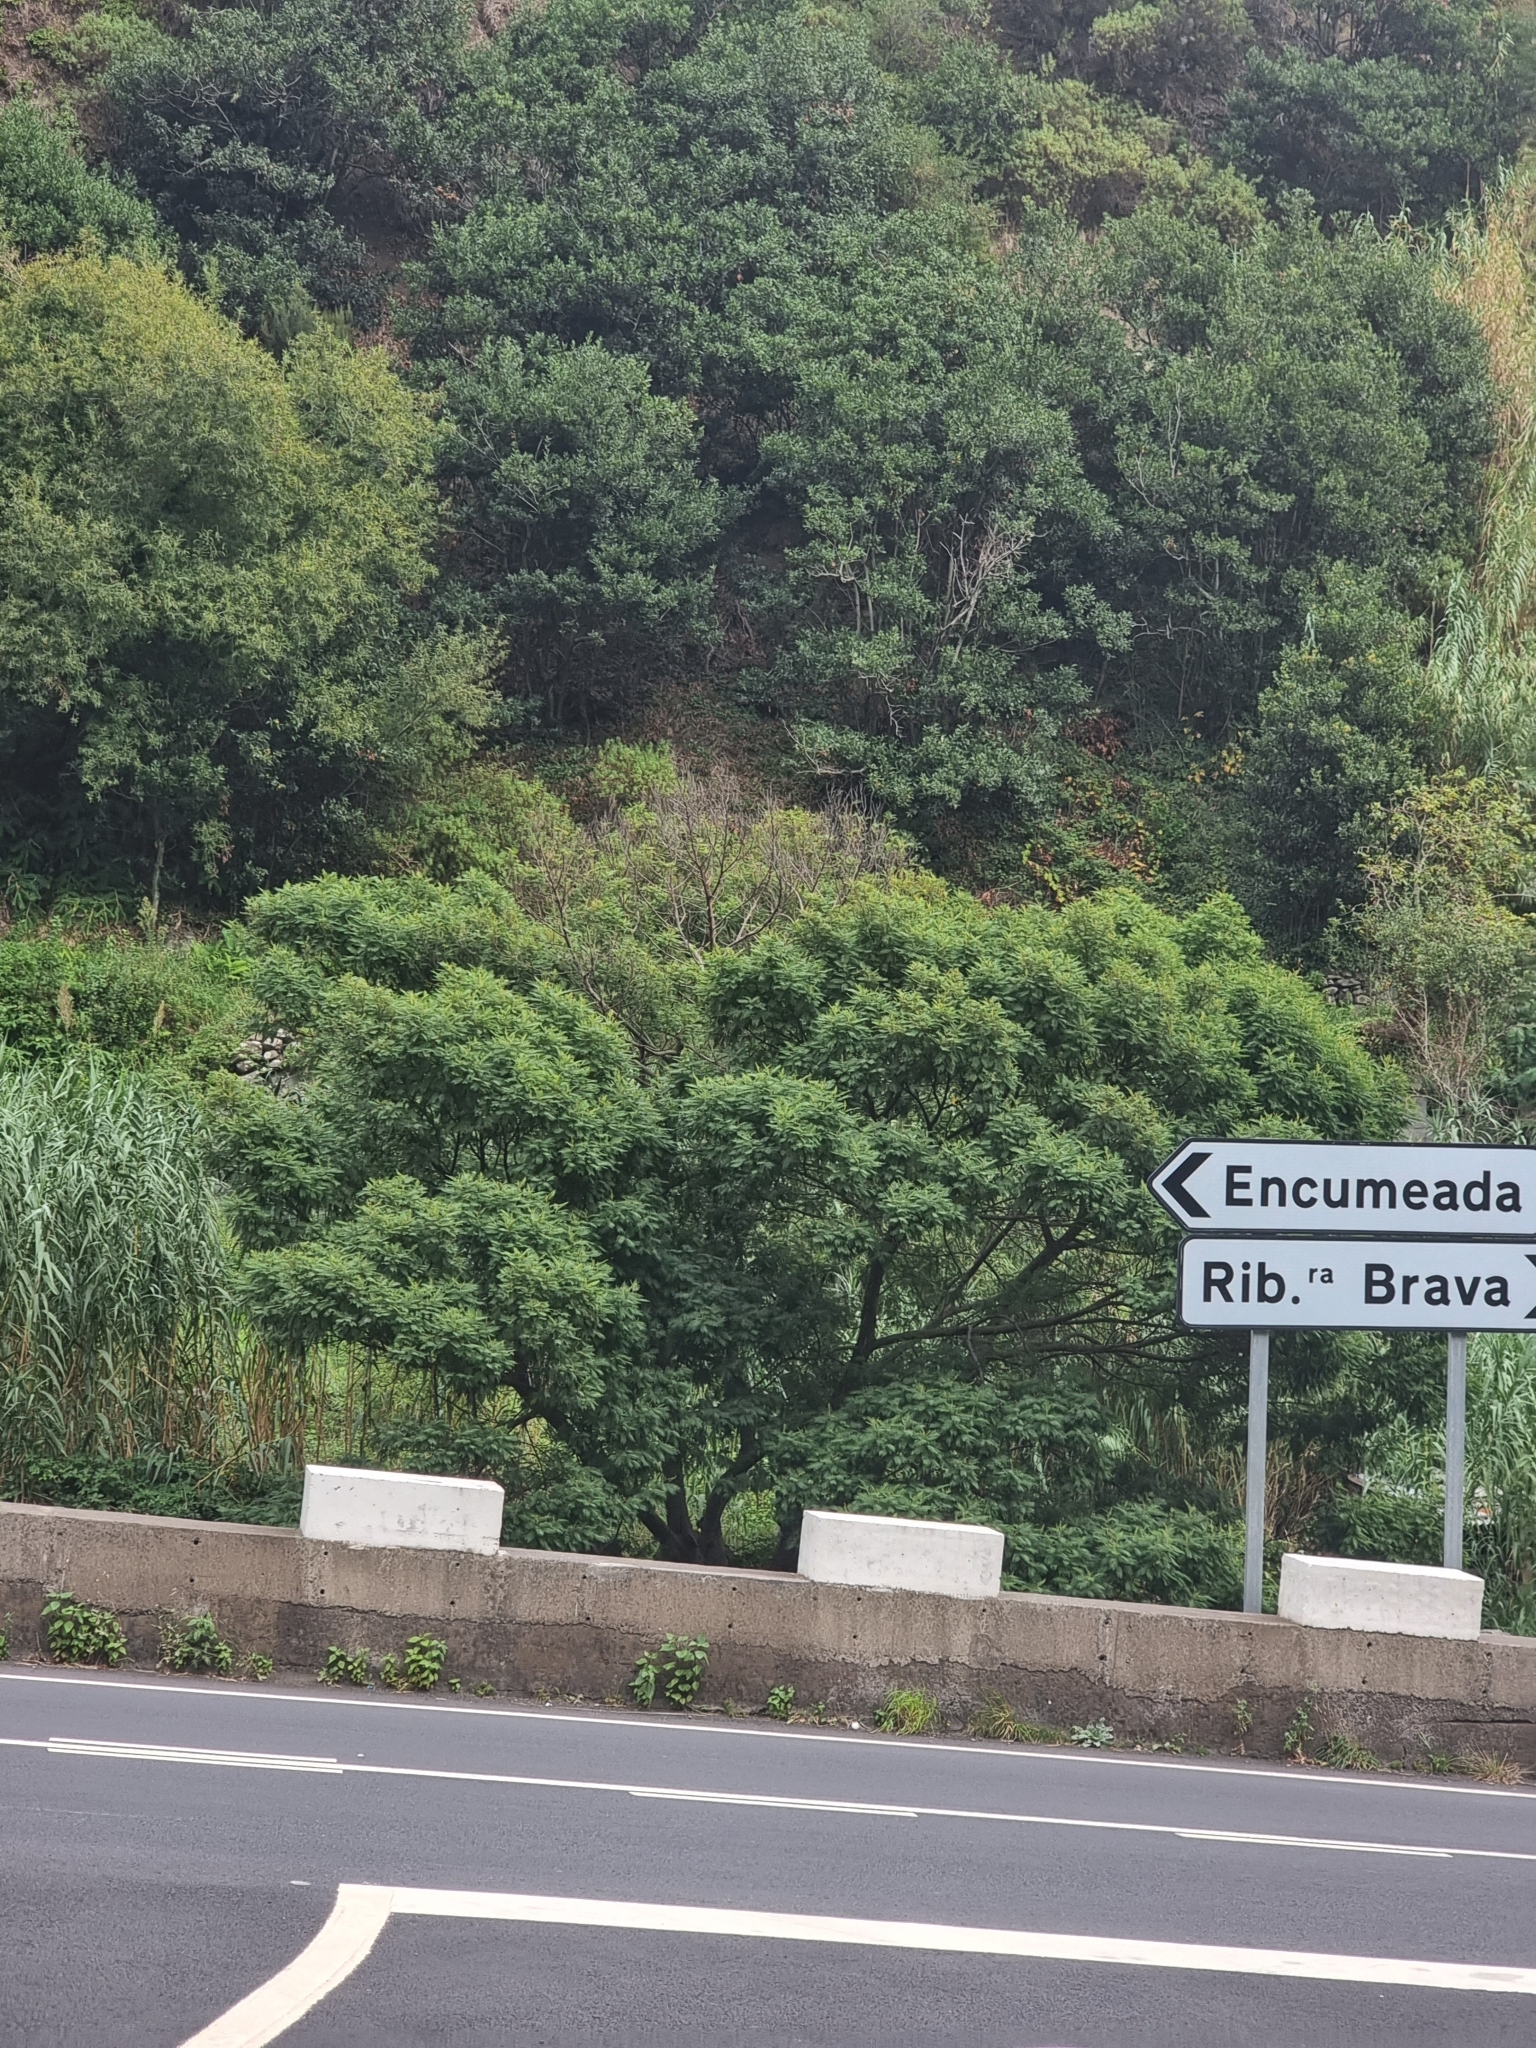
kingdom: Plantae
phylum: Tracheophyta
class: Magnoliopsida
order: Fabales
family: Fabaceae
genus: Acacia
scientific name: Acacia mearnsii
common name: Black wattle
